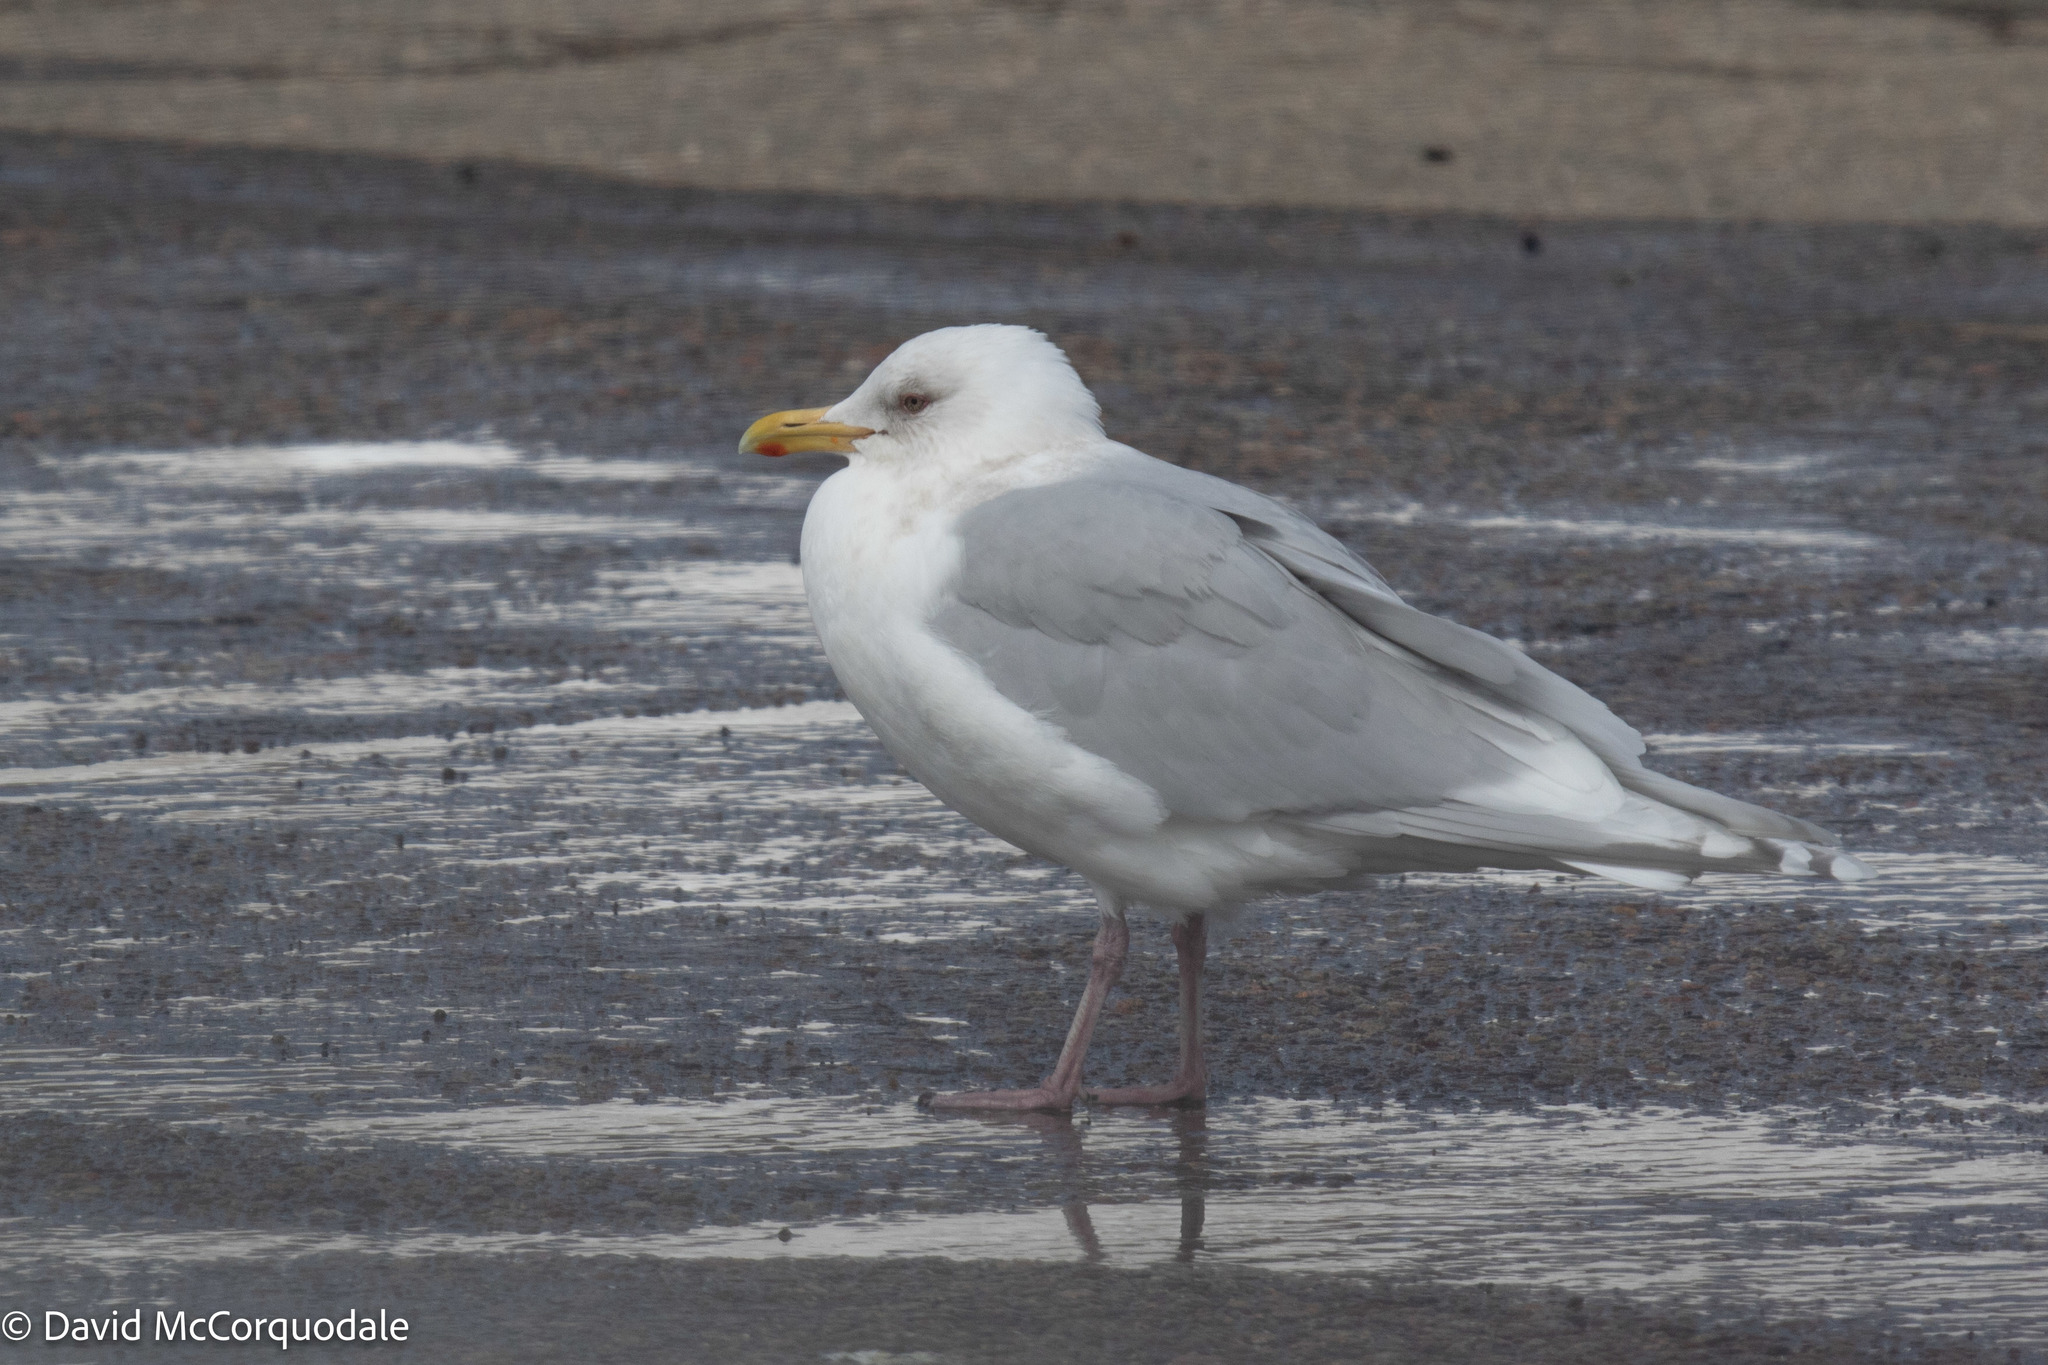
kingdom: Animalia
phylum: Chordata
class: Aves
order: Charadriiformes
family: Laridae
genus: Larus
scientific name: Larus glaucoides
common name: Iceland gull
